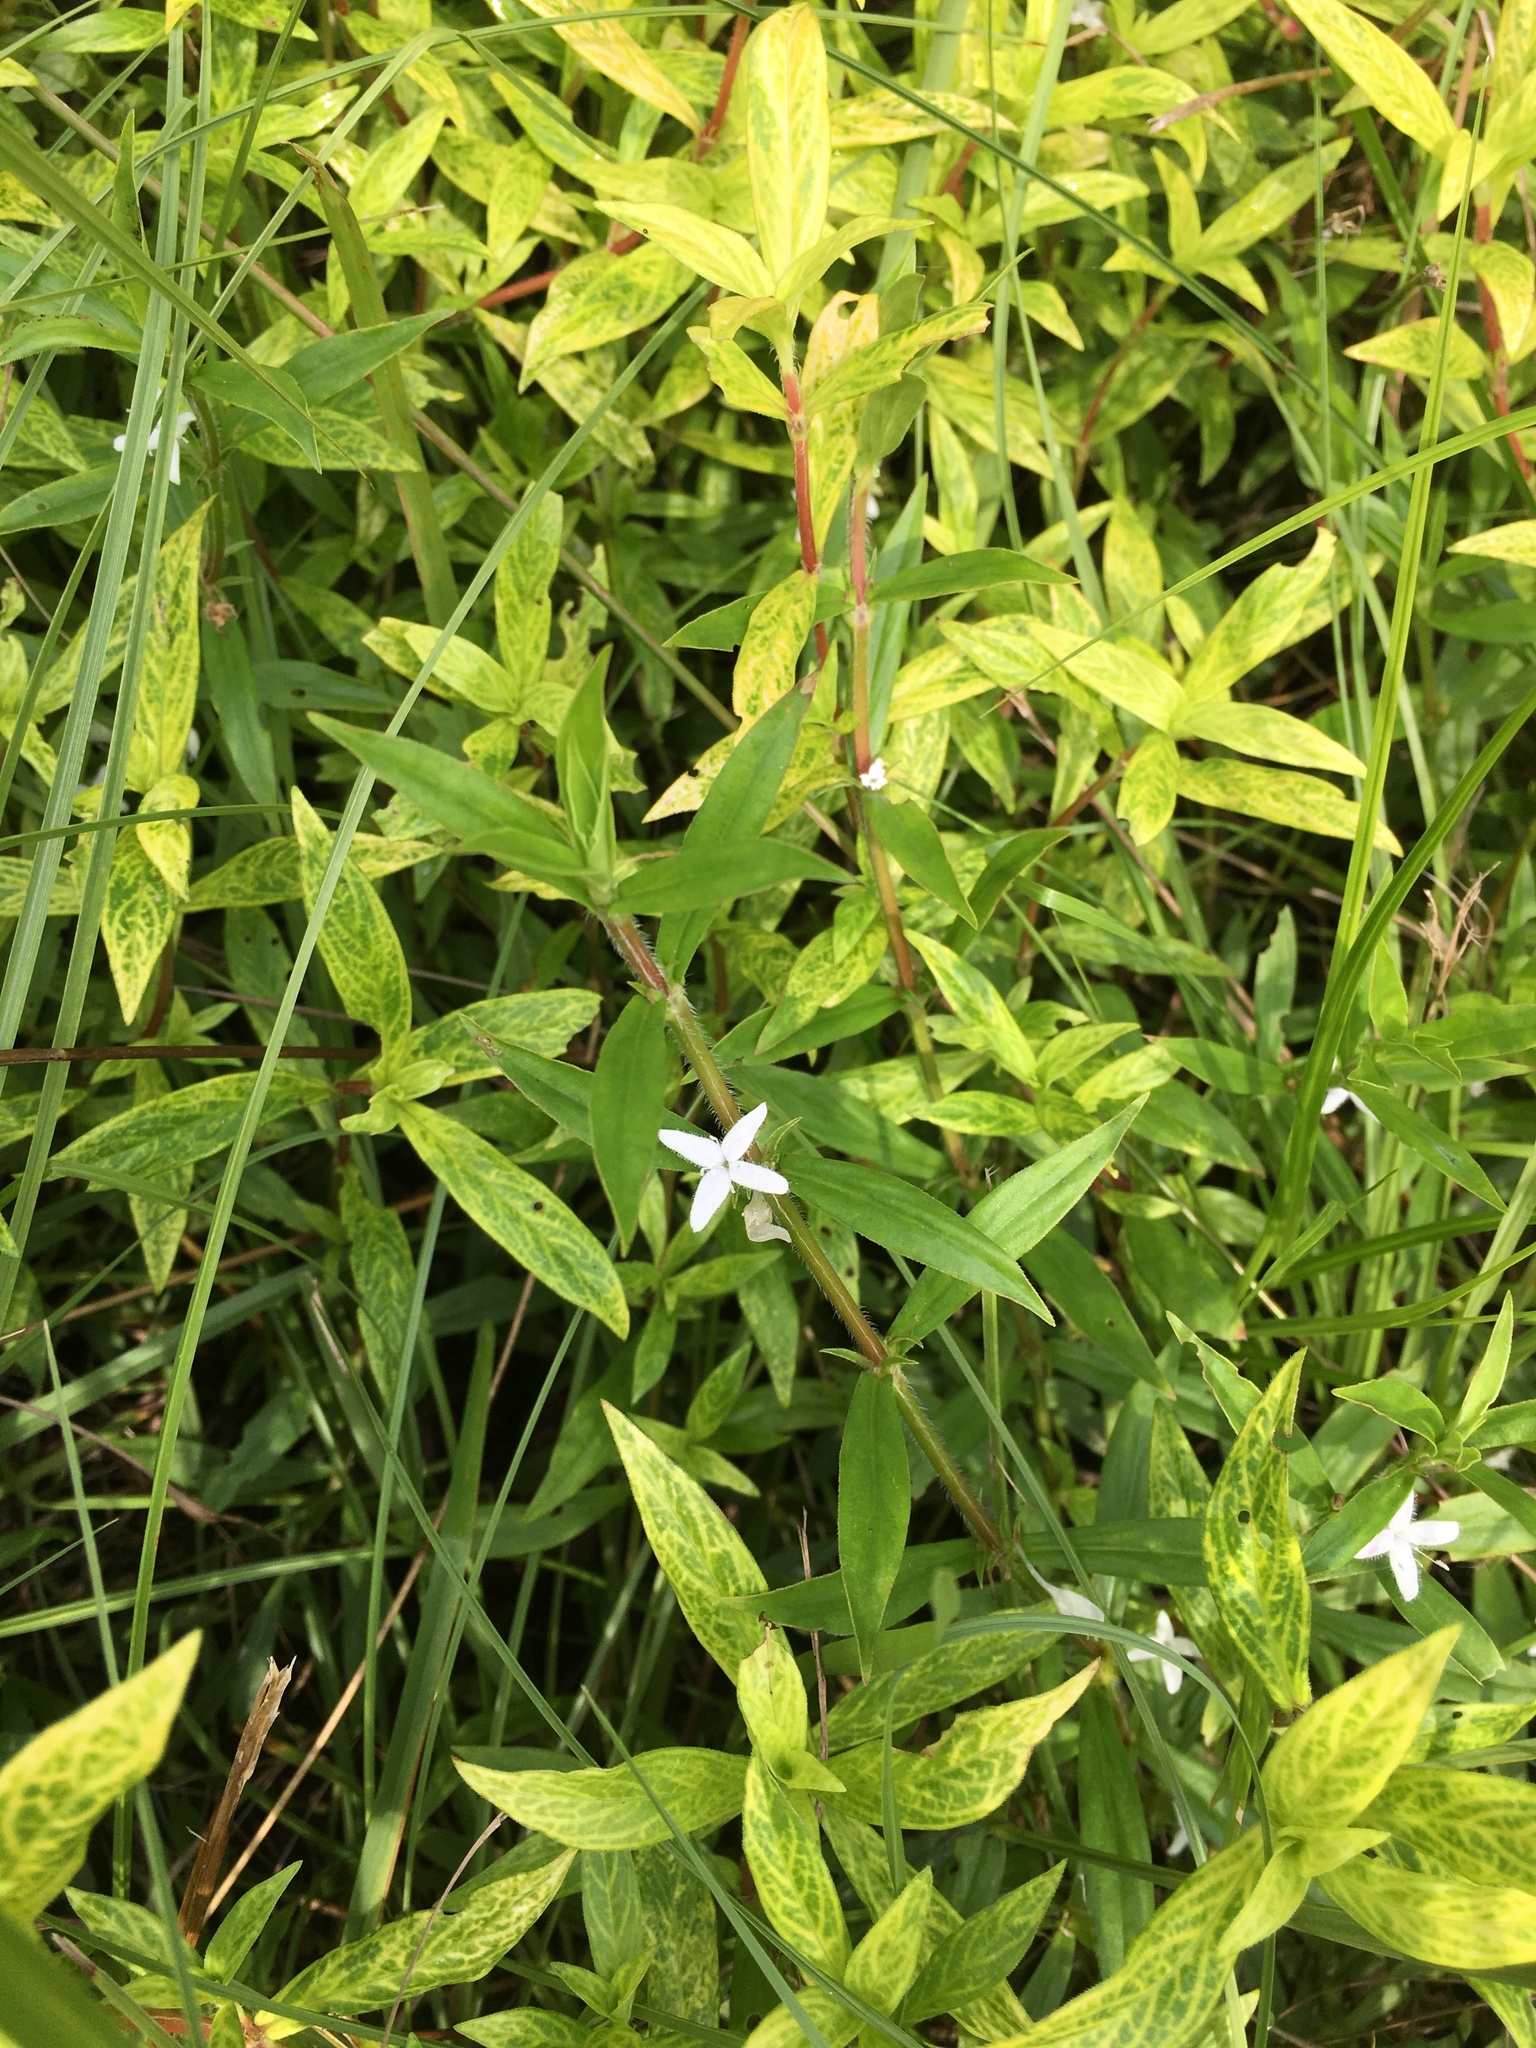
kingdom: Plantae
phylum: Tracheophyta
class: Magnoliopsida
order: Gentianales
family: Rubiaceae
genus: Diodia
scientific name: Diodia virginiana
